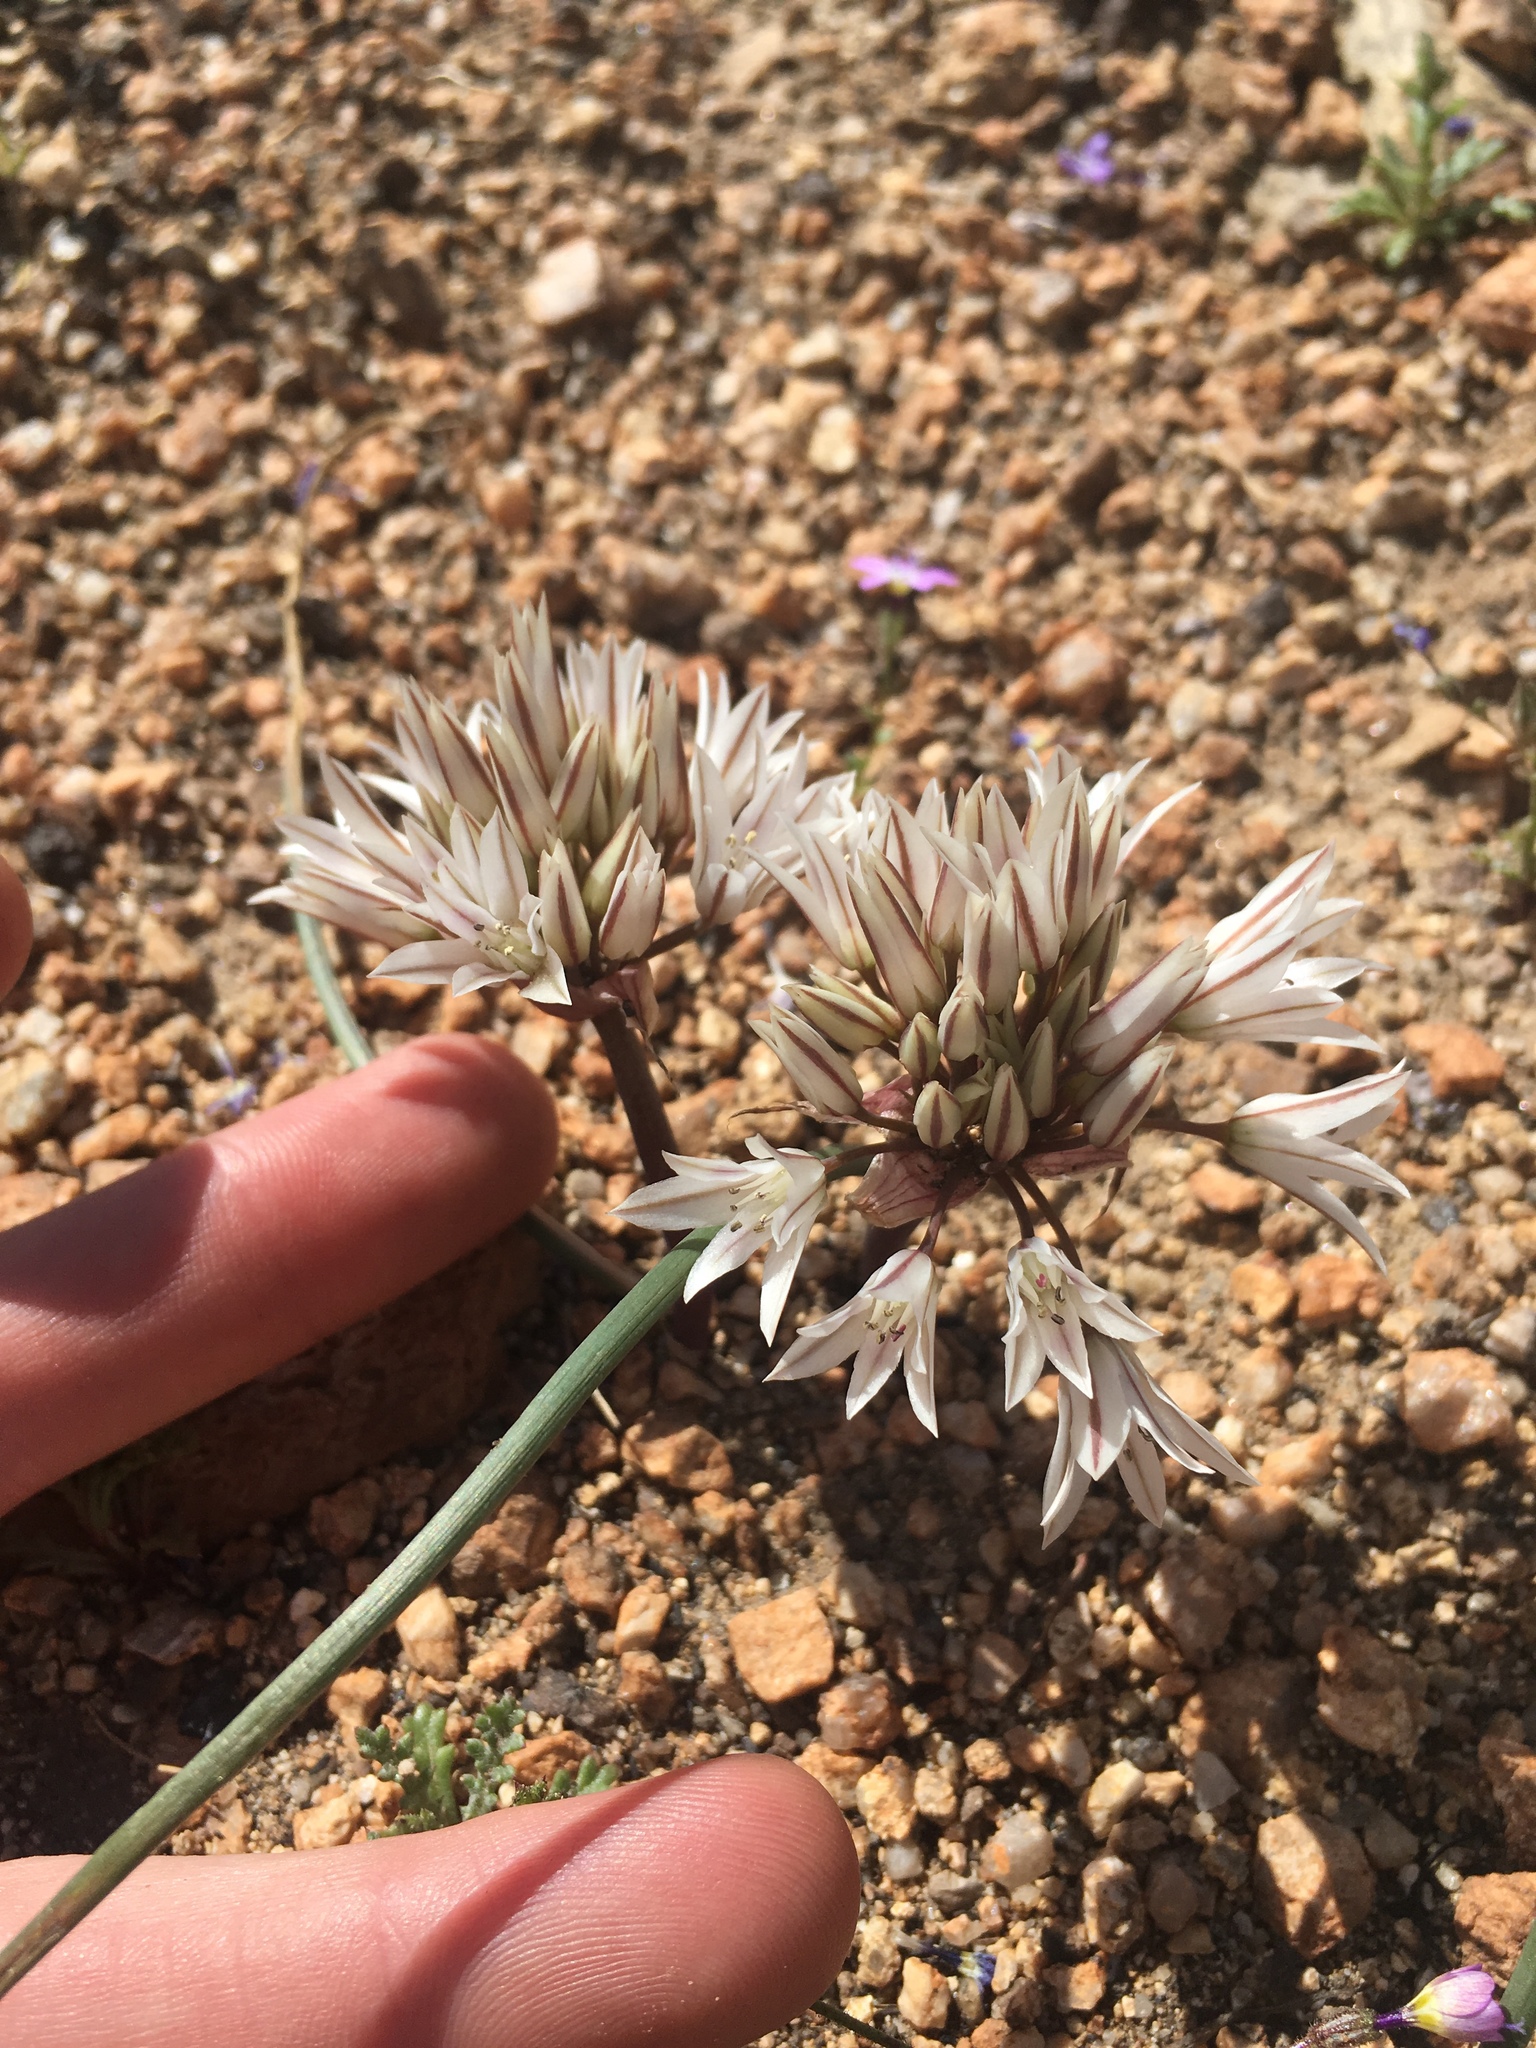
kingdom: Plantae
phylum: Tracheophyta
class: Liliopsida
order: Asparagales
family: Amaryllidaceae
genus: Allium
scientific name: Allium atrorubens
